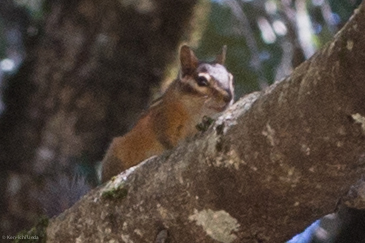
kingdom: Animalia
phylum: Chordata
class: Mammalia
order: Rodentia
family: Sciuridae
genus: Tamias
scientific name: Tamias sonomae
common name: Sonoma chipmunk
